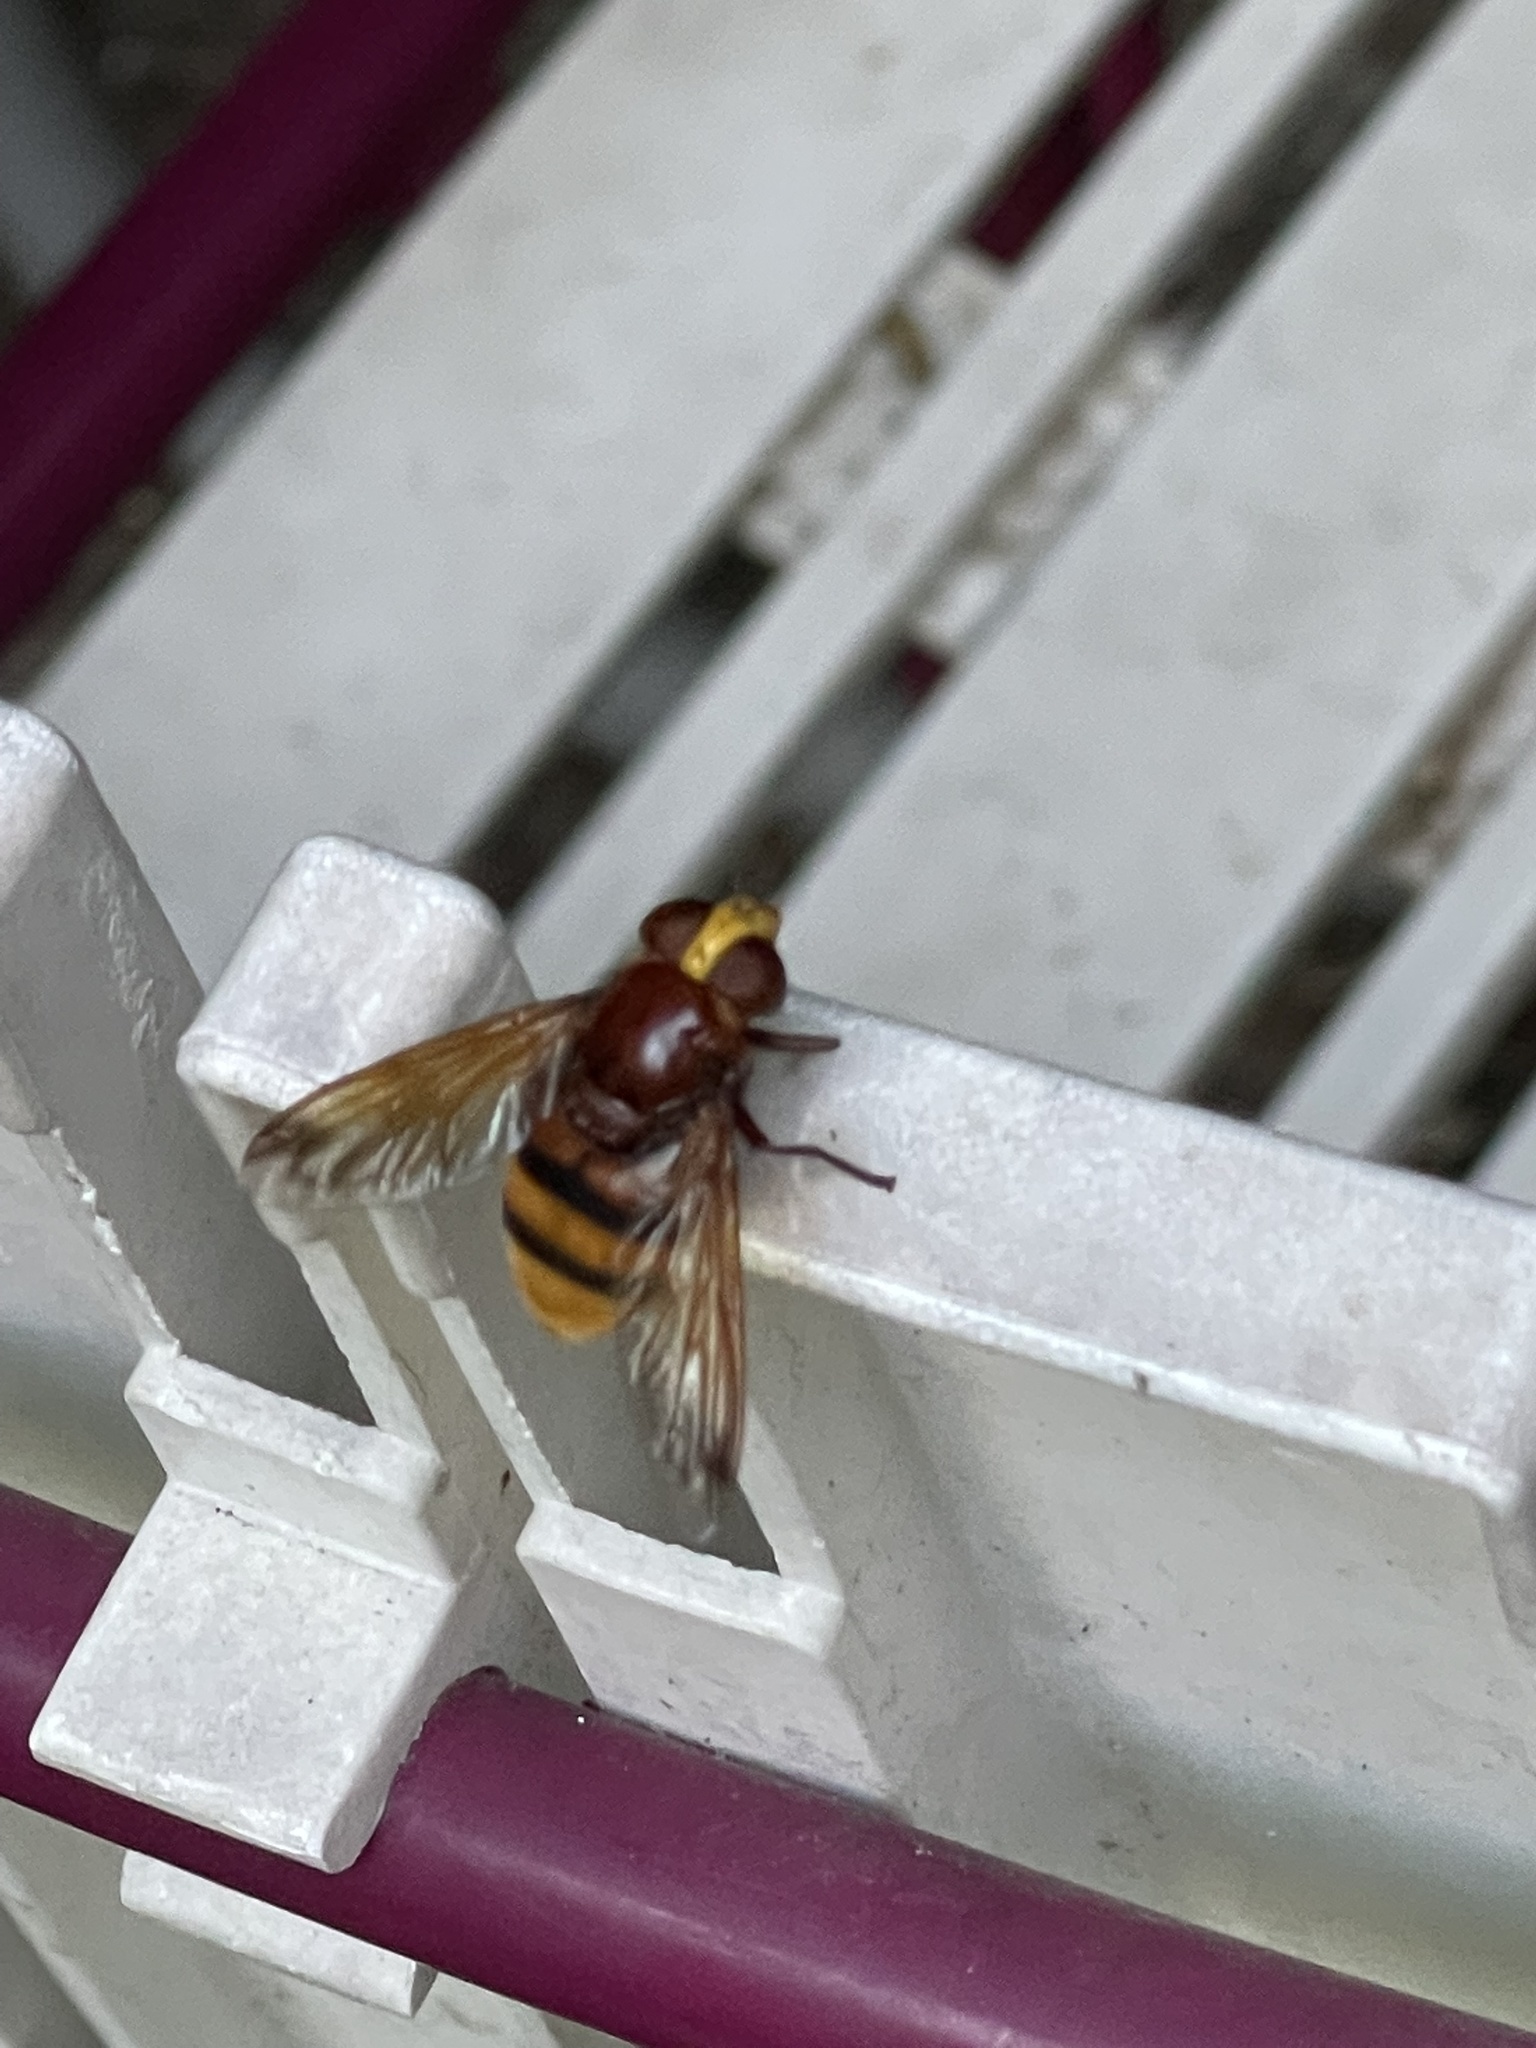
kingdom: Animalia
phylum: Arthropoda
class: Insecta
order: Diptera
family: Syrphidae
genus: Volucella
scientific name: Volucella zonaria
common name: Hornet hoverfly
